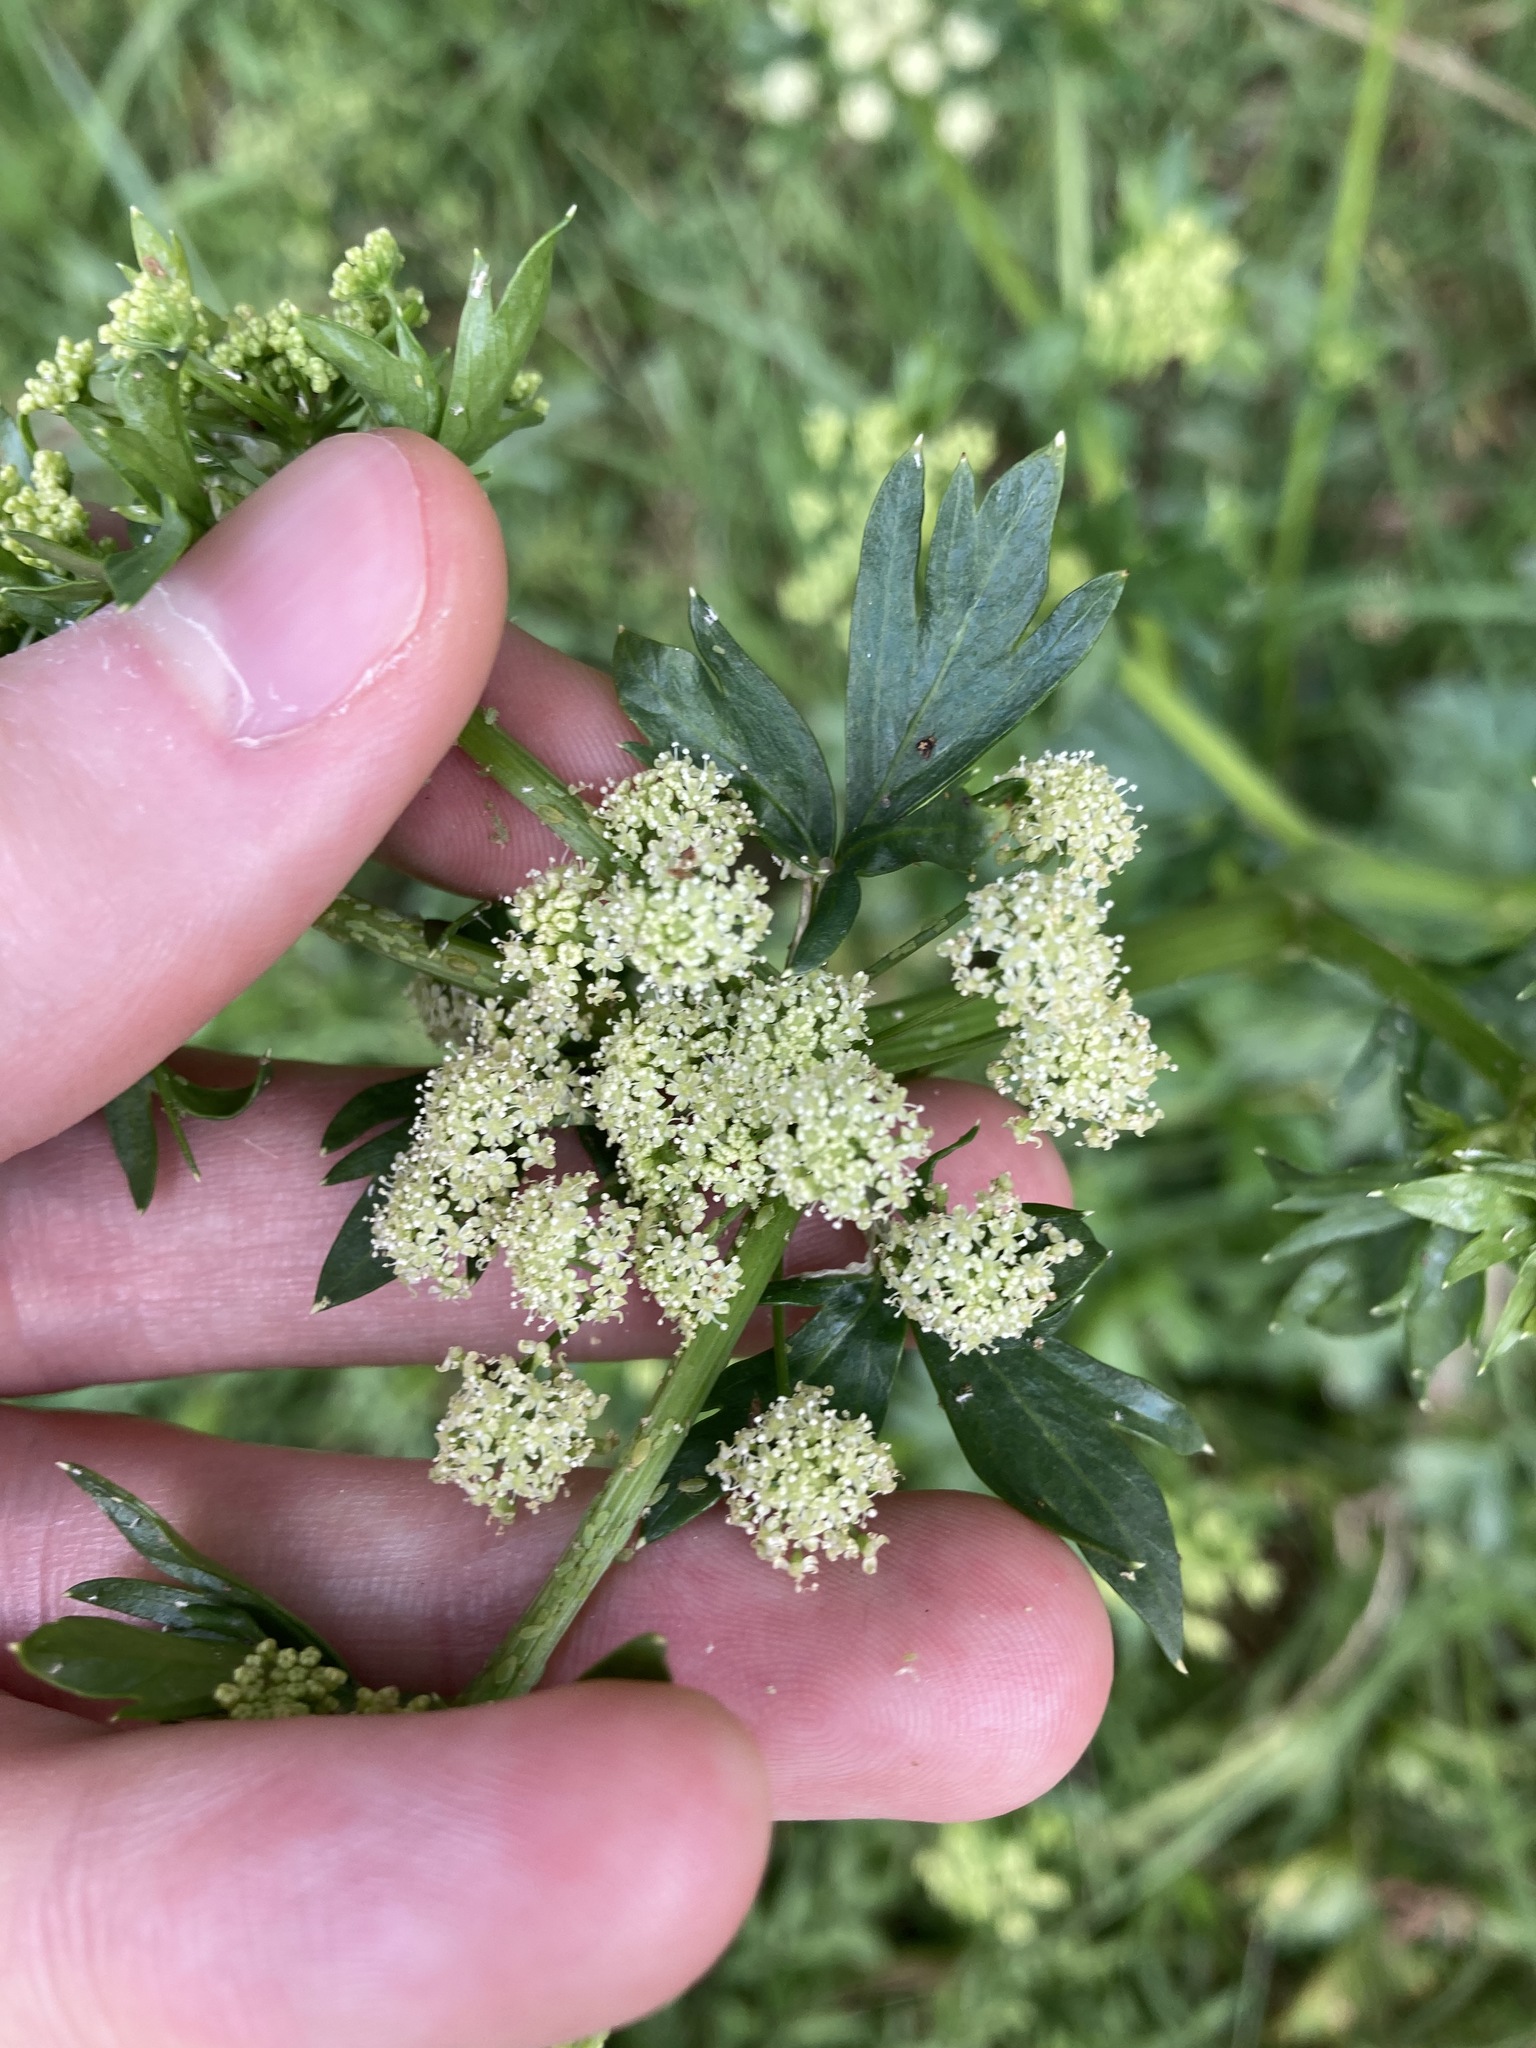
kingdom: Plantae
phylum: Tracheophyta
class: Magnoliopsida
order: Apiales
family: Apiaceae
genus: Apium
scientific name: Apium graveolens
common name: Wild celery
